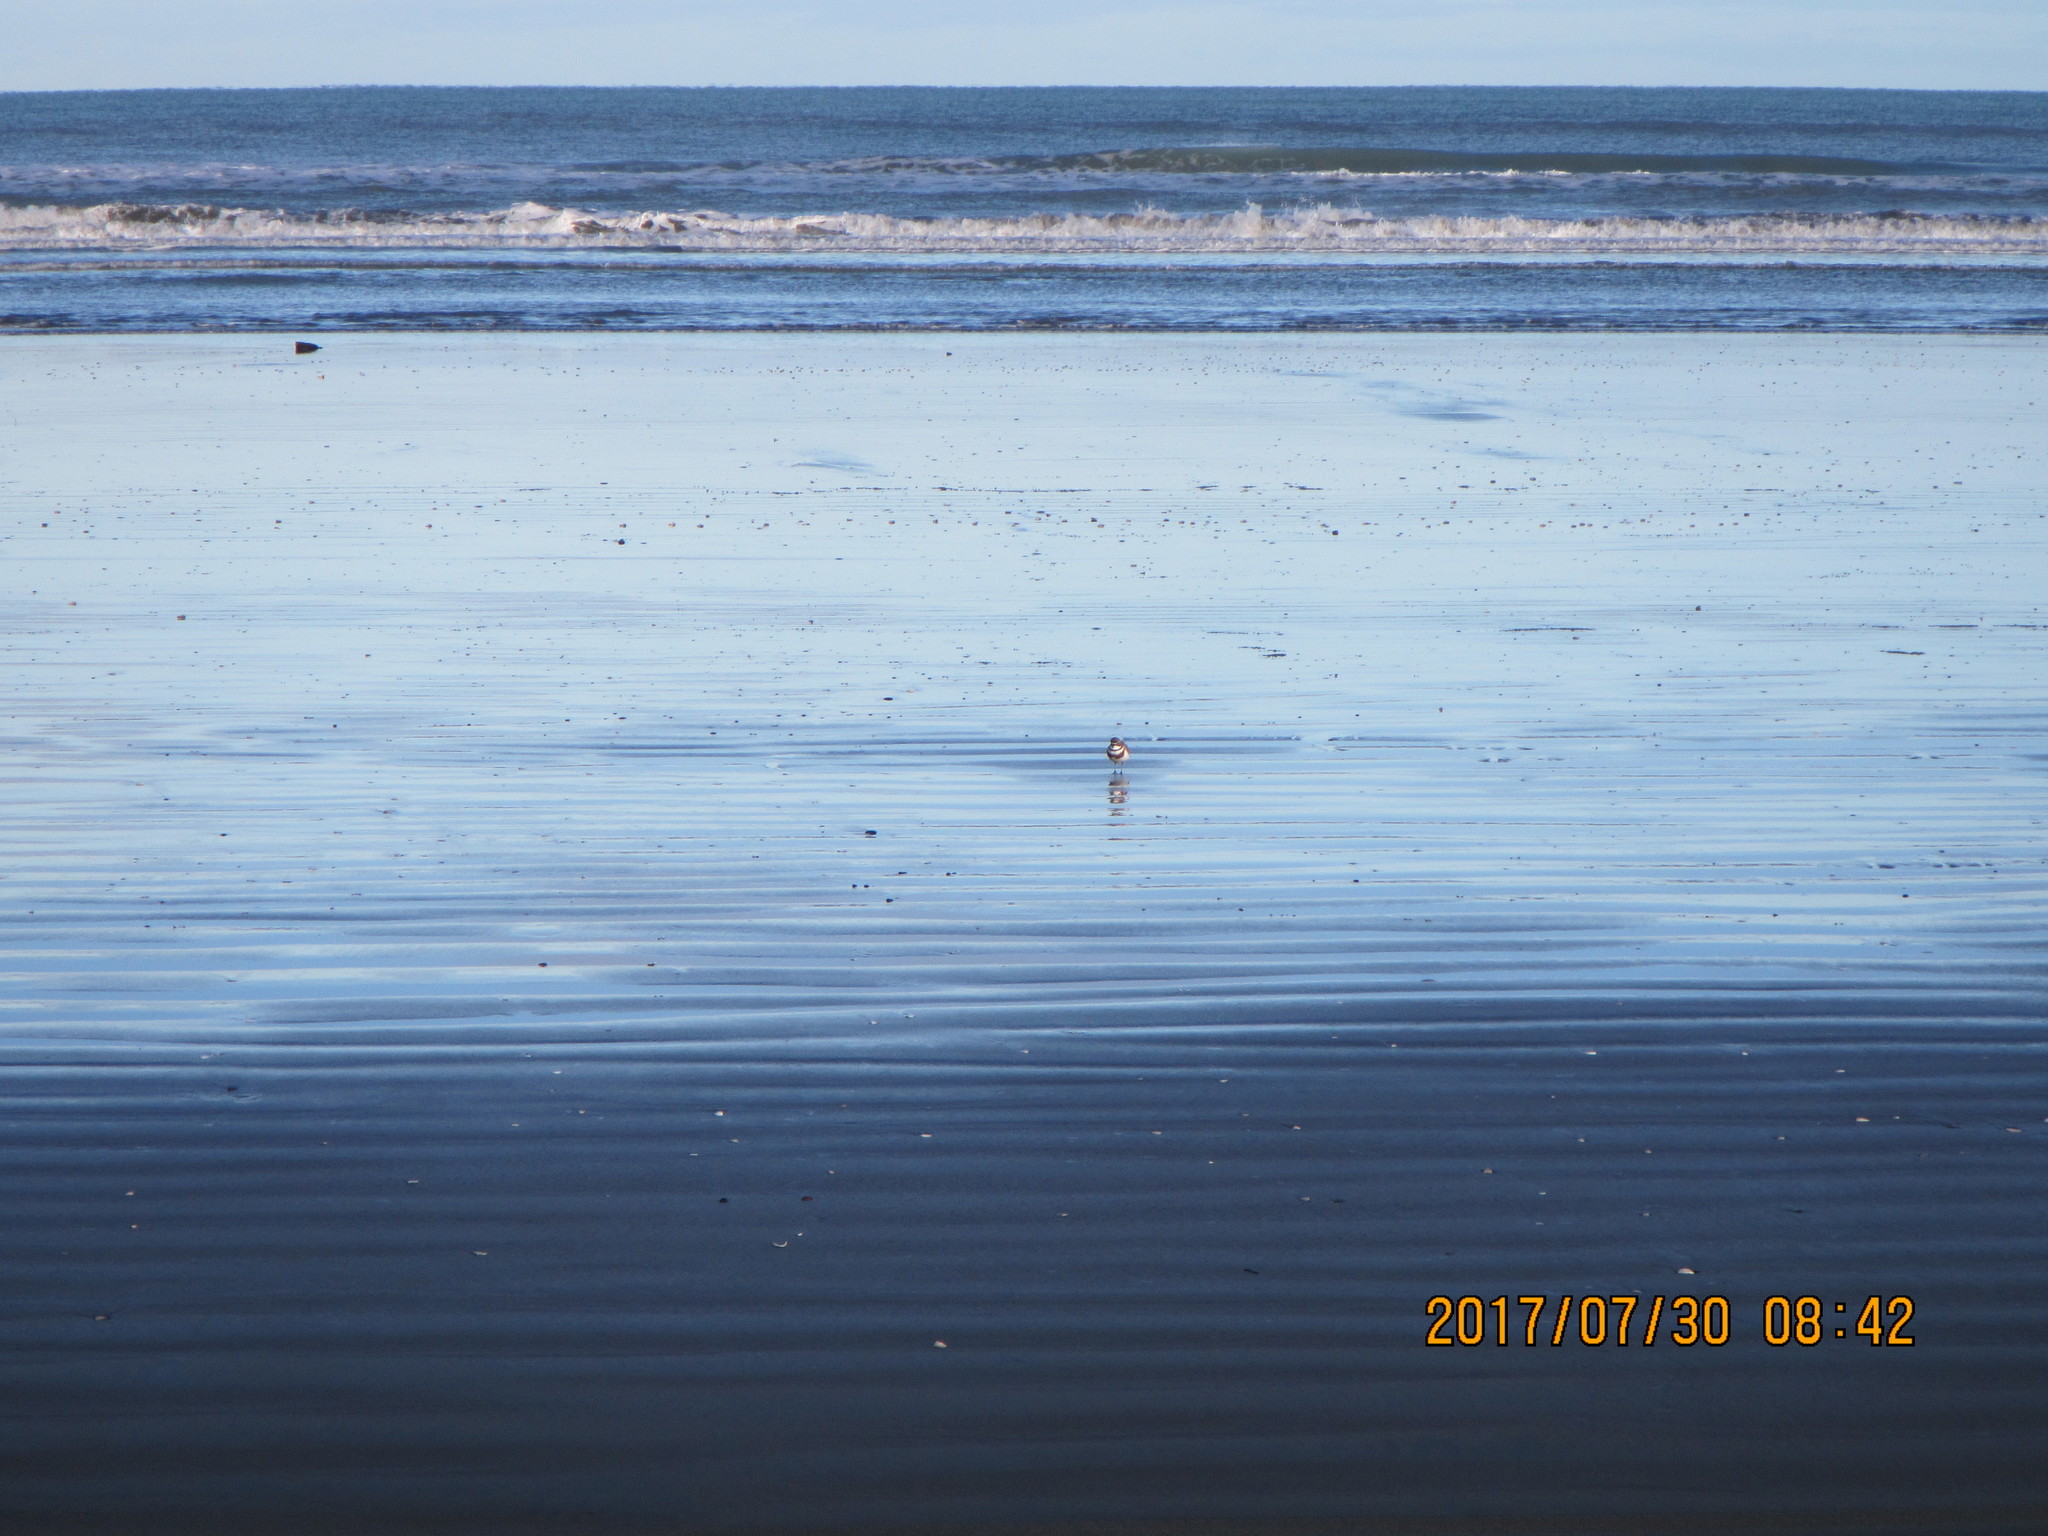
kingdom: Animalia
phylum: Chordata
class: Aves
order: Charadriiformes
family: Charadriidae
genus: Anarhynchus
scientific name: Anarhynchus
